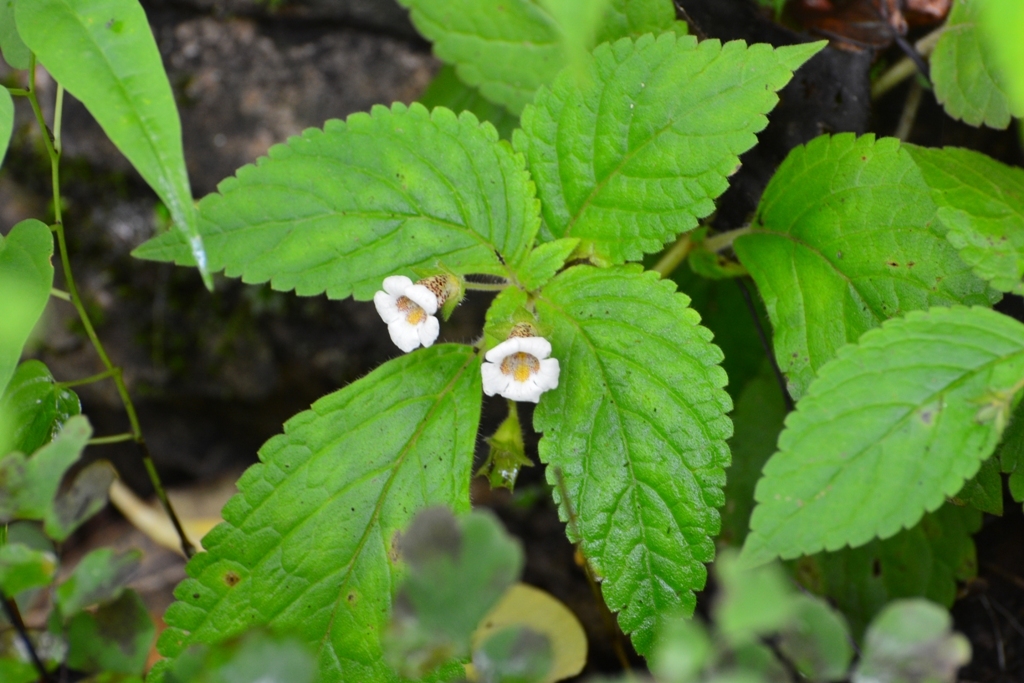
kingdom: Plantae
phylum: Tracheophyta
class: Magnoliopsida
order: Lamiales
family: Gesneriaceae
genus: Achimenes
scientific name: Achimenes misera
